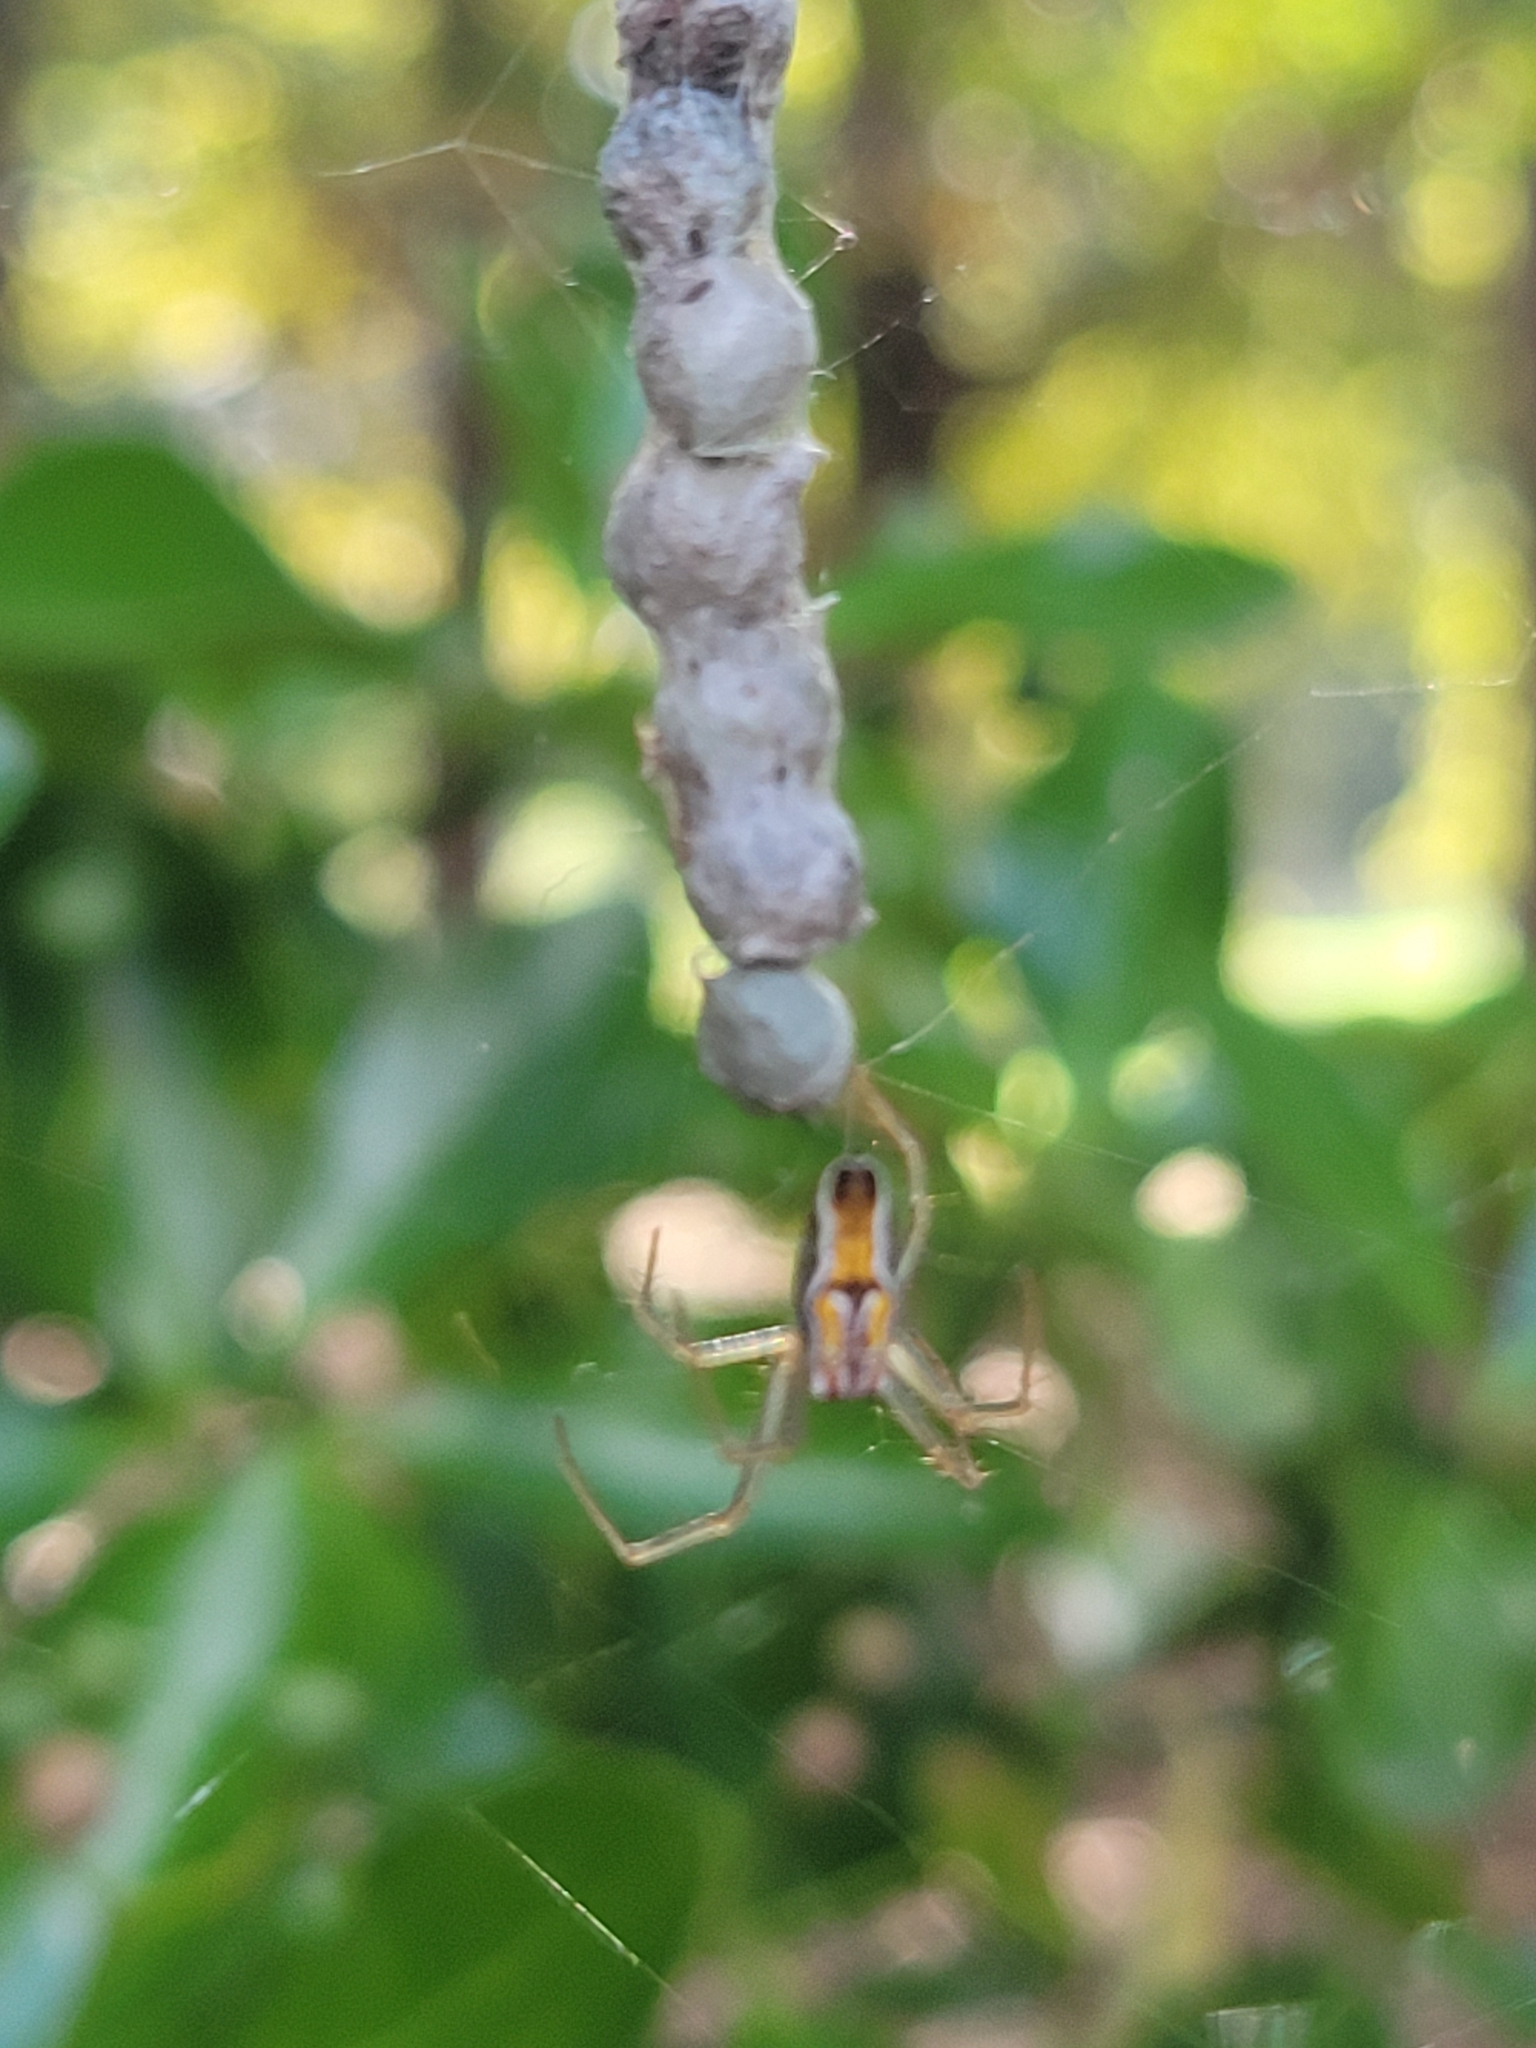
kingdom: Animalia
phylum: Arthropoda
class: Arachnida
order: Araneae
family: Araneidae
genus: Mecynogea
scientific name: Mecynogea lemniscata
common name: Orb weavers
